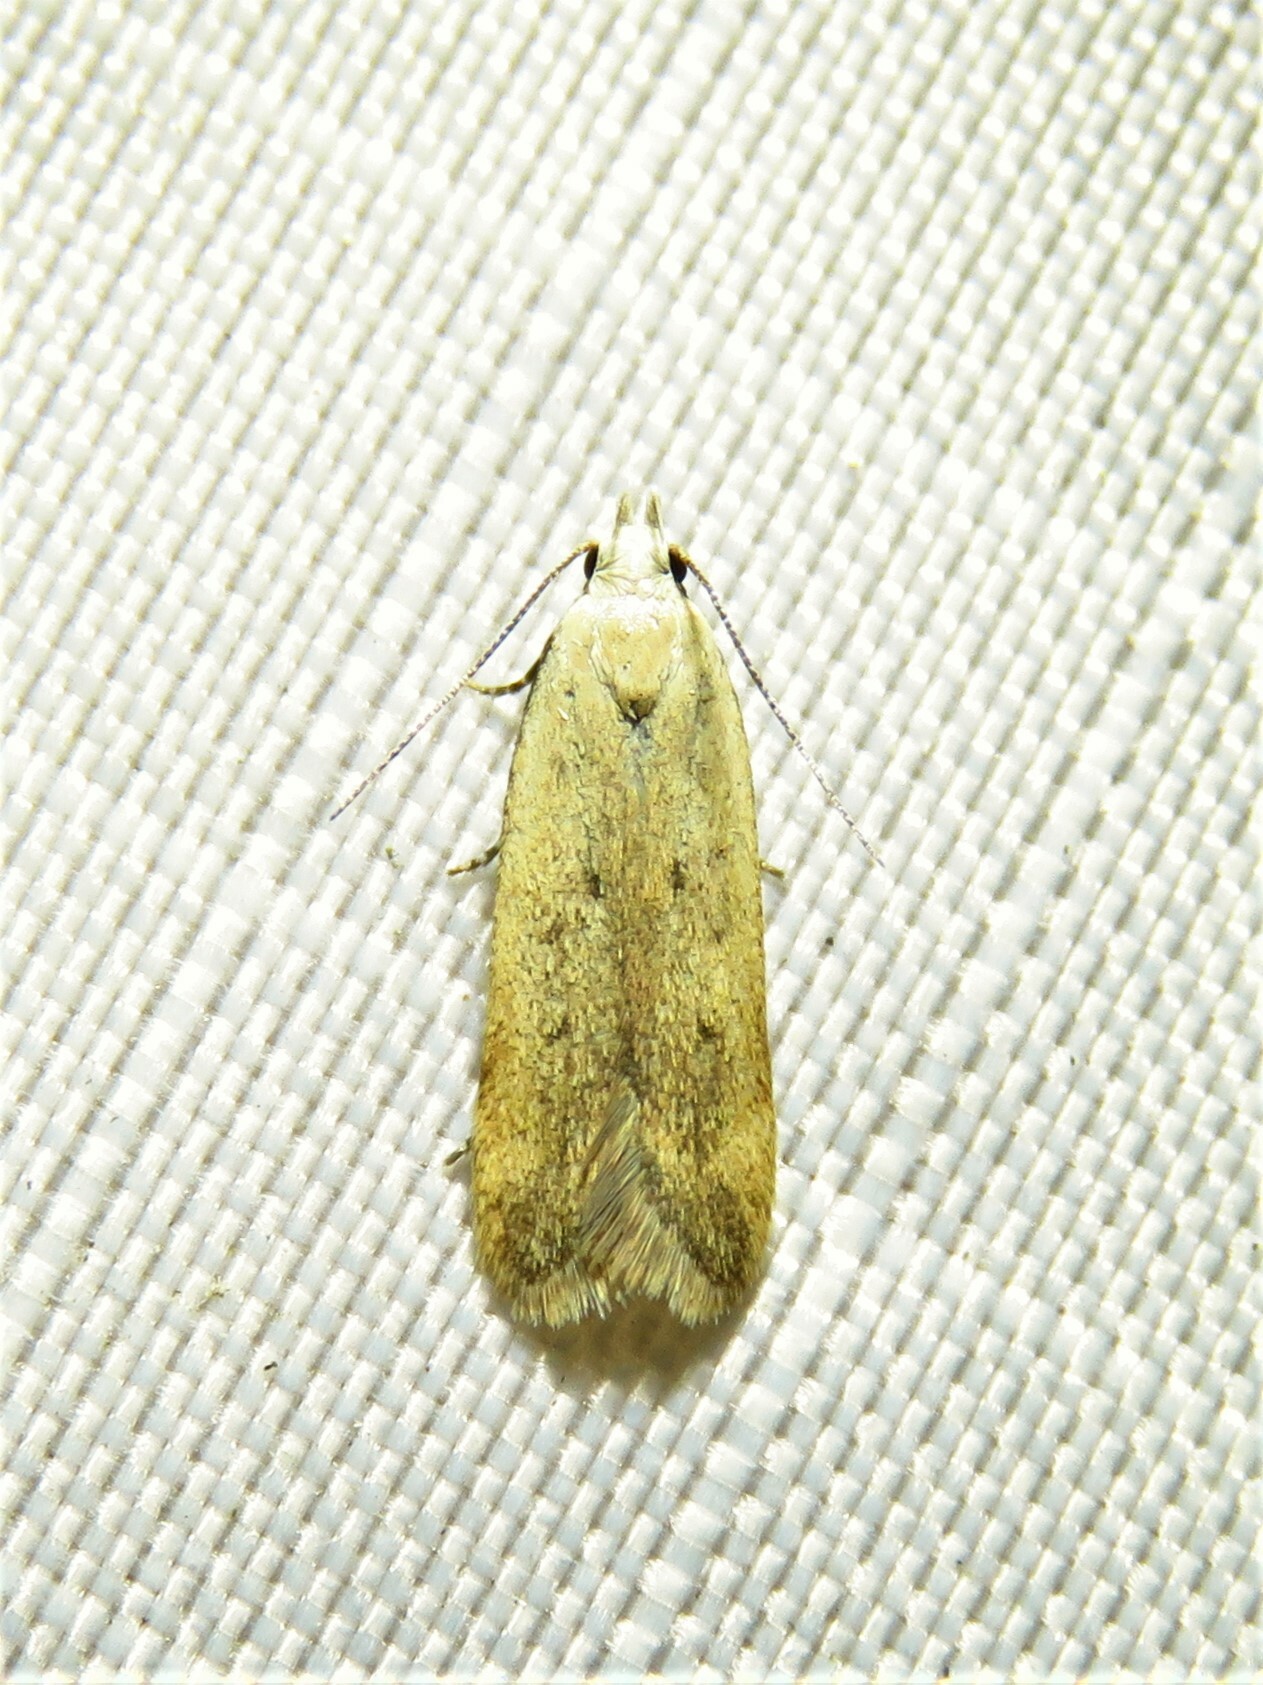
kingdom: Animalia
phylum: Arthropoda
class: Insecta
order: Lepidoptera
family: Gelechiidae
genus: Anacampsis
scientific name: Anacampsis fullonella
